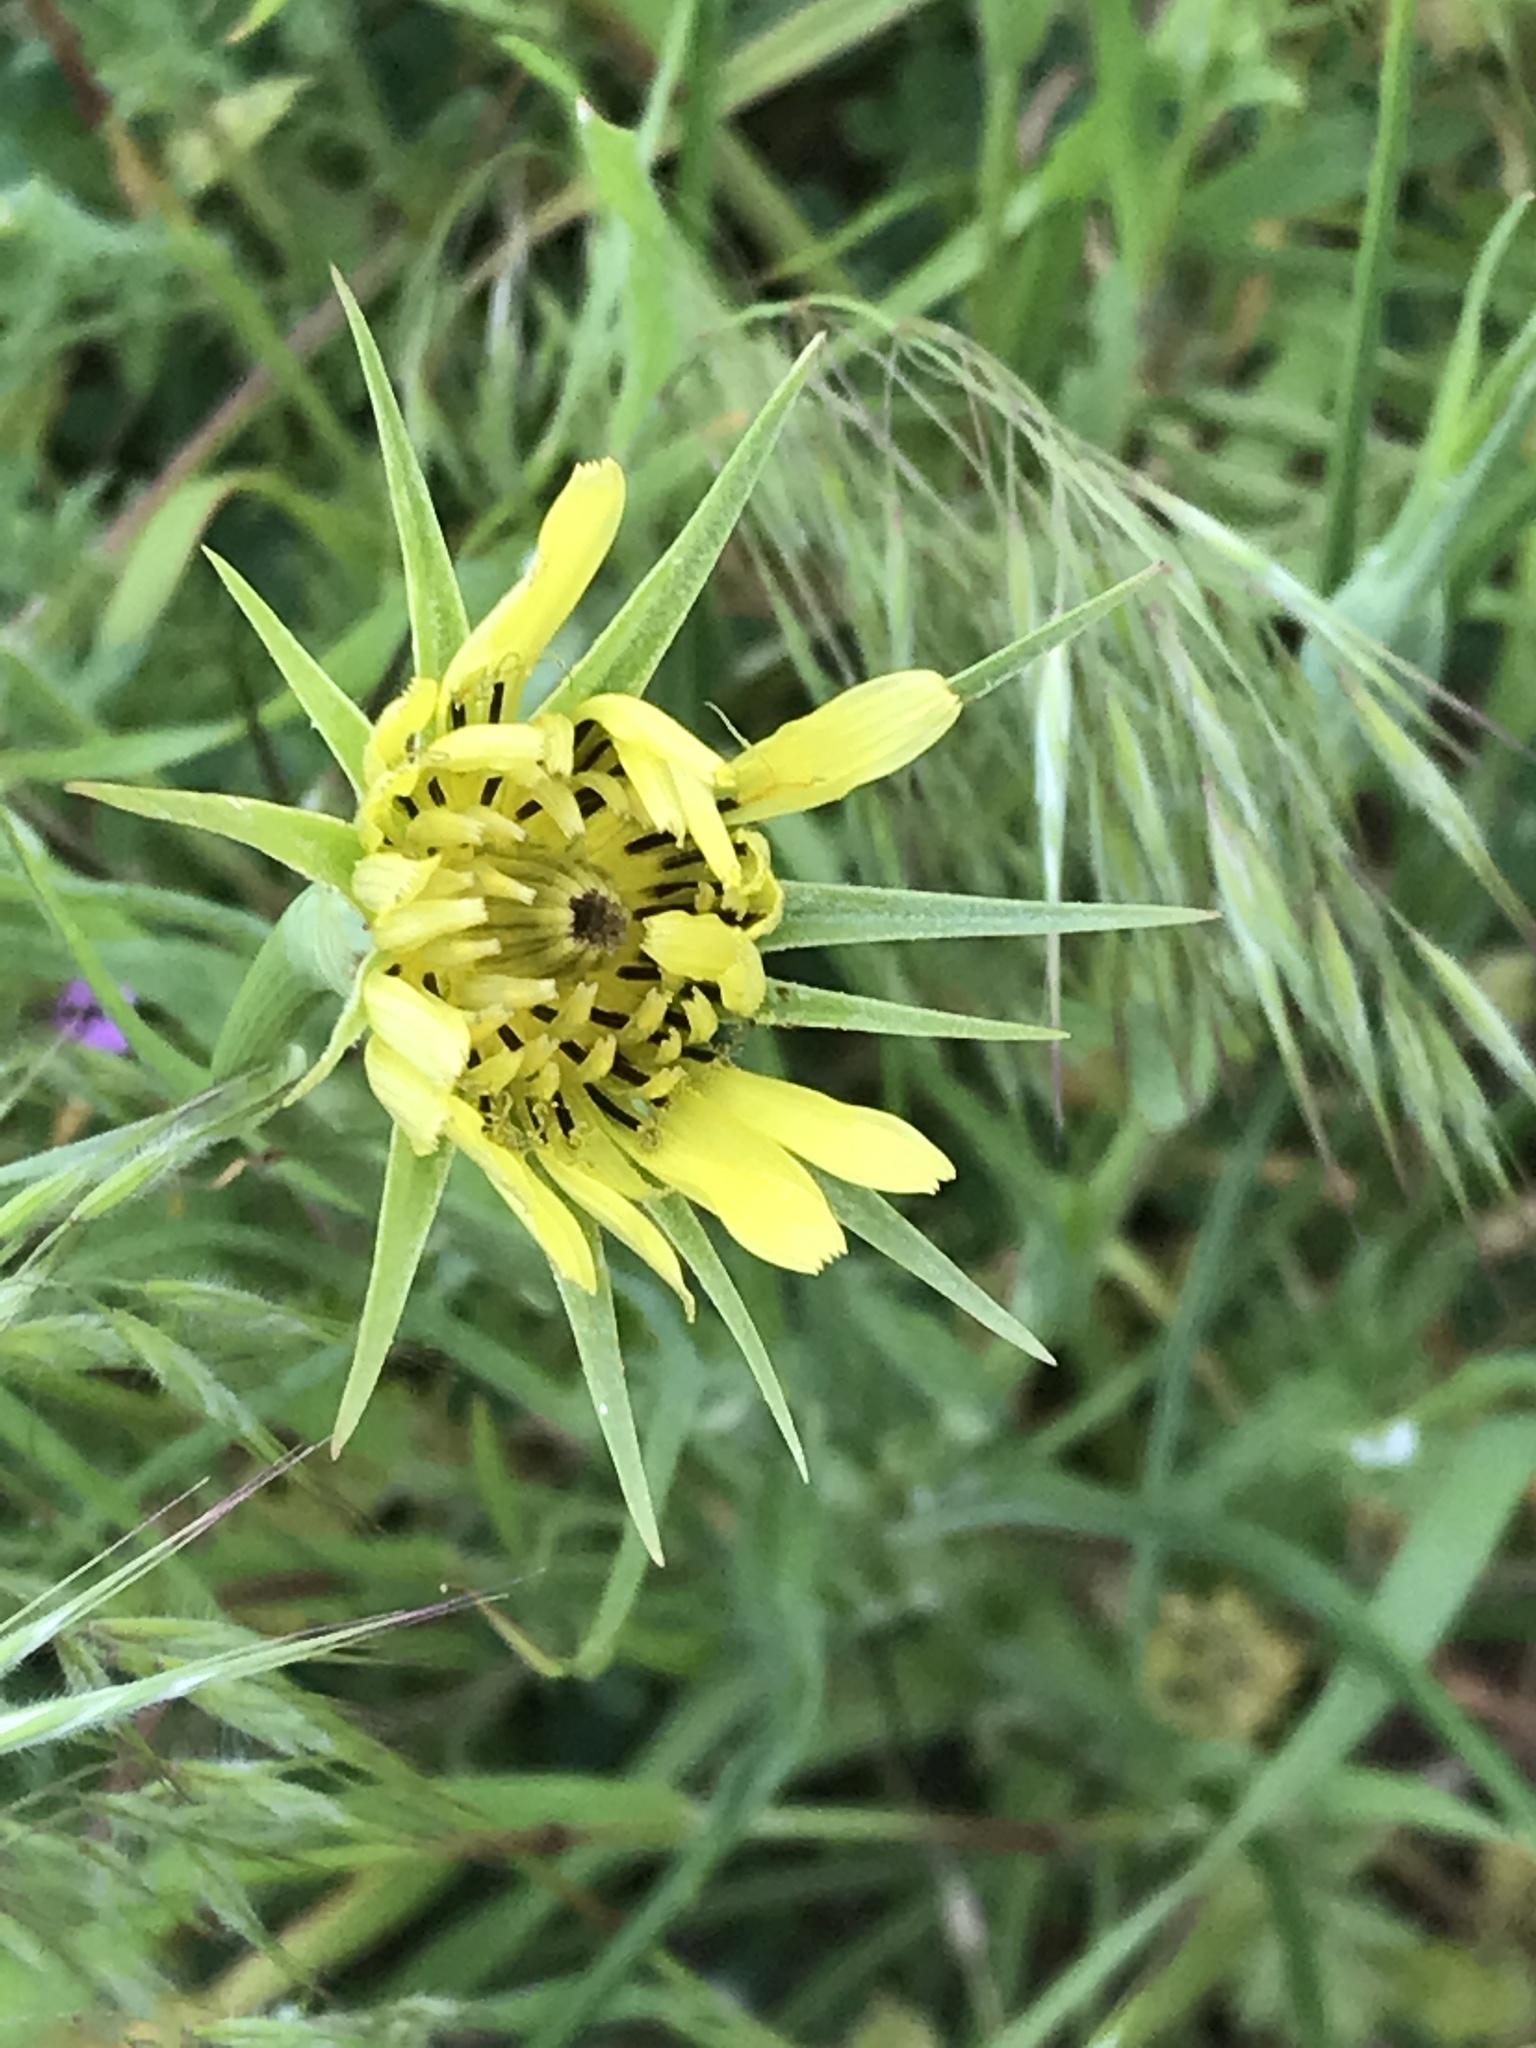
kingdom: Plantae
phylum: Tracheophyta
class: Magnoliopsida
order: Asterales
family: Asteraceae
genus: Tragopogon
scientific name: Tragopogon dubius
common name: Yellow salsify
